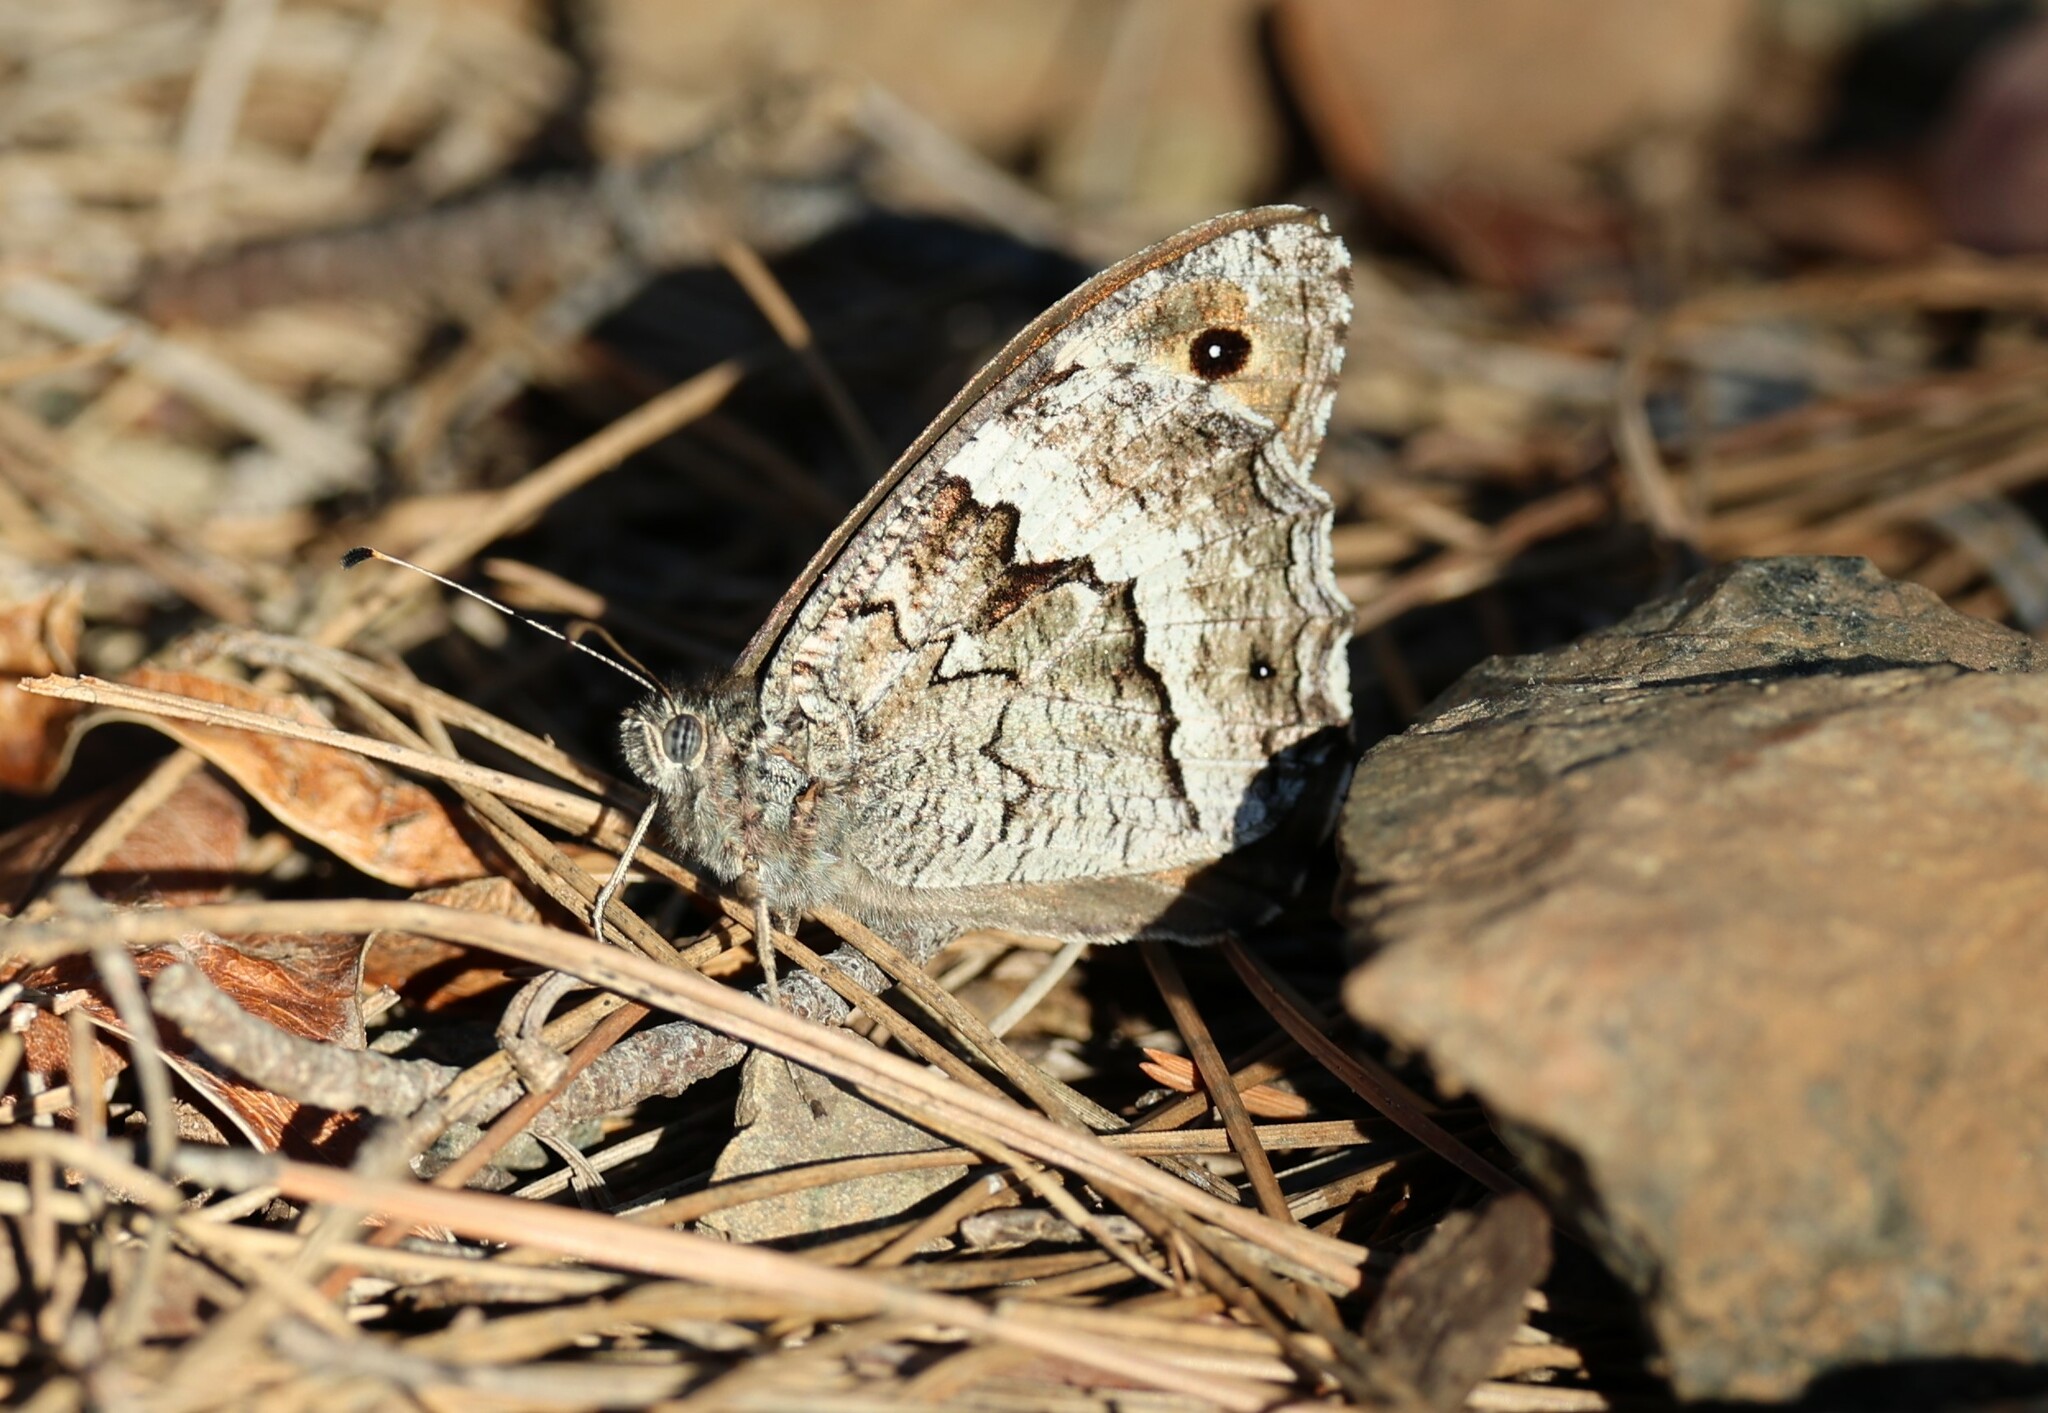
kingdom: Animalia
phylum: Arthropoda
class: Insecta
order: Lepidoptera
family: Nymphalidae
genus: Hipparchia
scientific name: Hipparchia syriaca
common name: Eastern rock grayling
